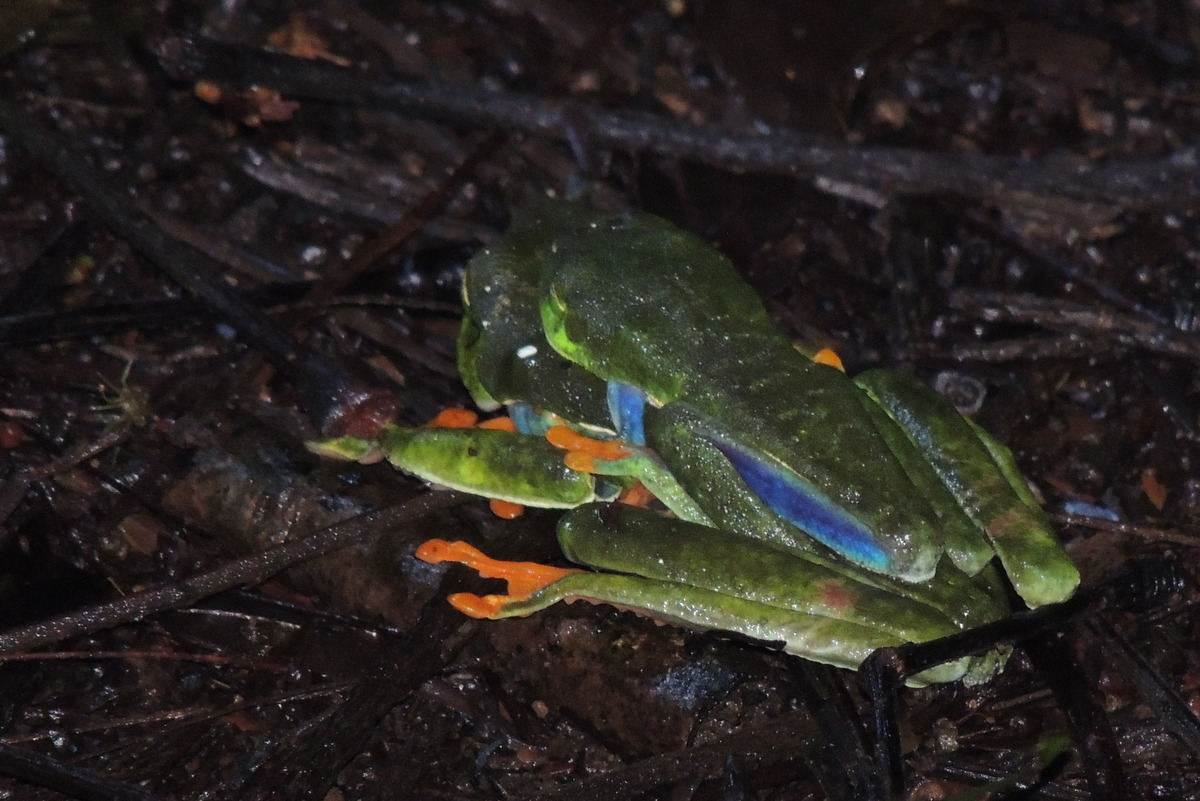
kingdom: Animalia
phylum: Chordata
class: Amphibia
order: Anura
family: Phyllomedusidae
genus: Agalychnis
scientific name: Agalychnis callidryas
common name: Red-eyed treefrog
